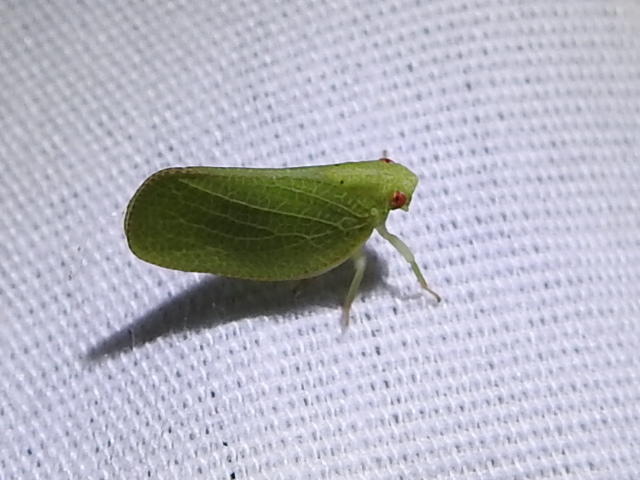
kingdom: Animalia
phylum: Arthropoda
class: Insecta
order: Hemiptera
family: Acanaloniidae
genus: Acanalonia
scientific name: Acanalonia conica
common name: Green cone-headed planthopper
